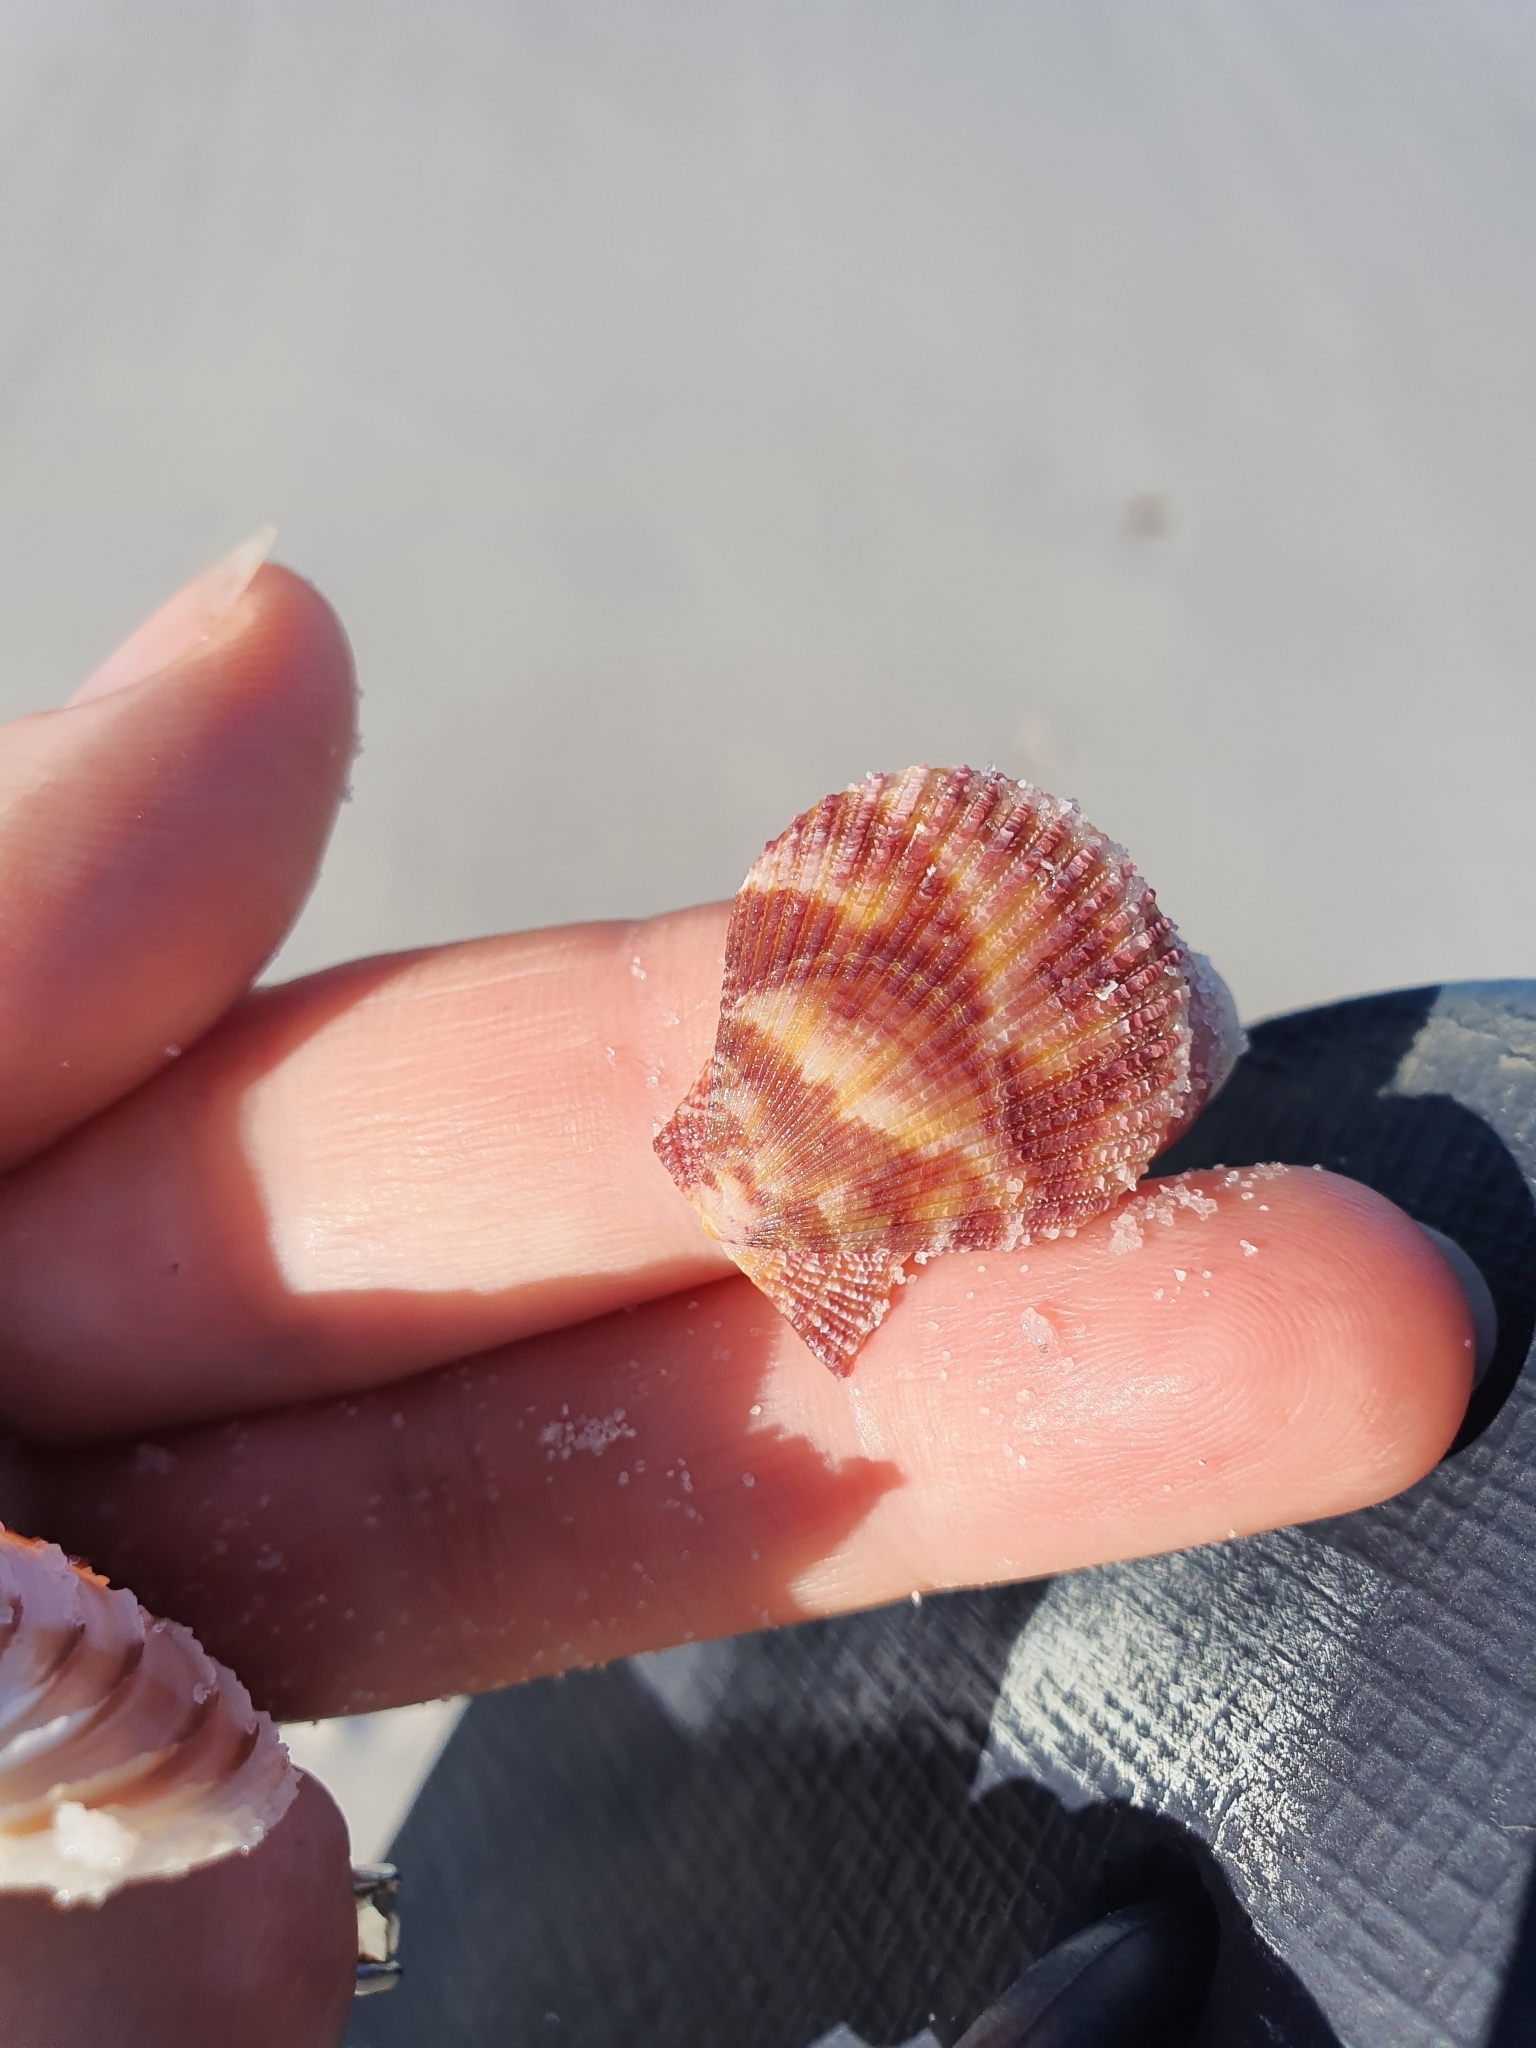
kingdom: Animalia
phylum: Mollusca
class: Bivalvia
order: Pectinida
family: Pectinidae
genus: Mimachlamys
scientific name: Mimachlamys asperrima
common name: Austral scallop
